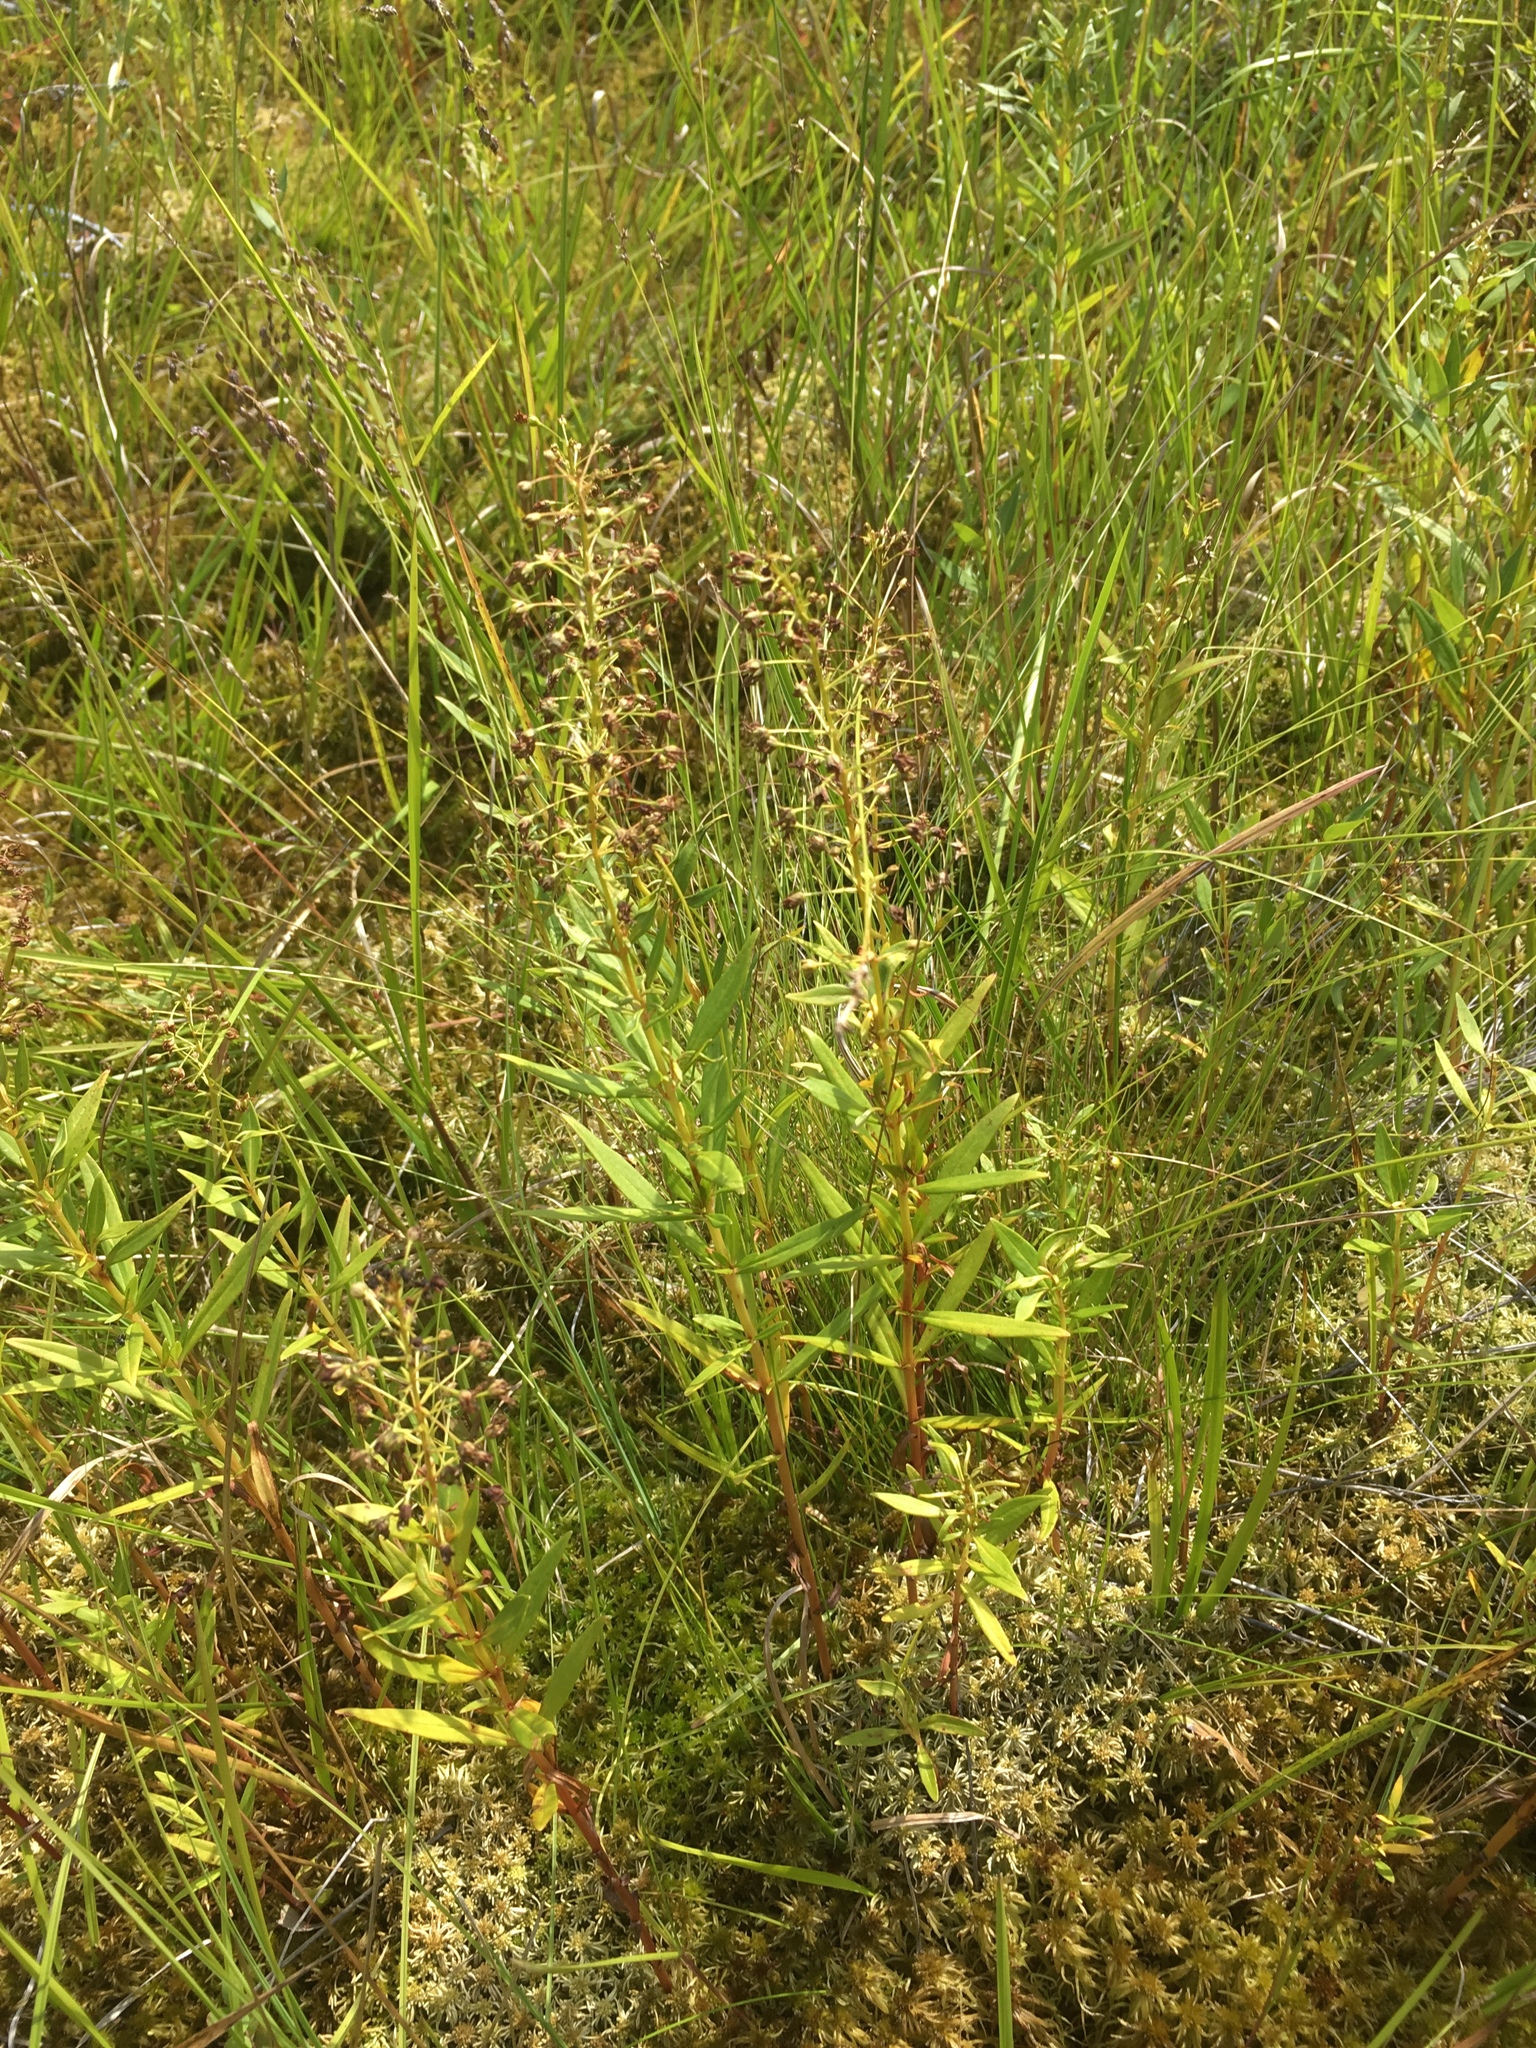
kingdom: Plantae
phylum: Tracheophyta
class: Magnoliopsida
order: Ericales
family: Primulaceae
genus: Lysimachia
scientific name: Lysimachia terrestris
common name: Lake loosestrife
